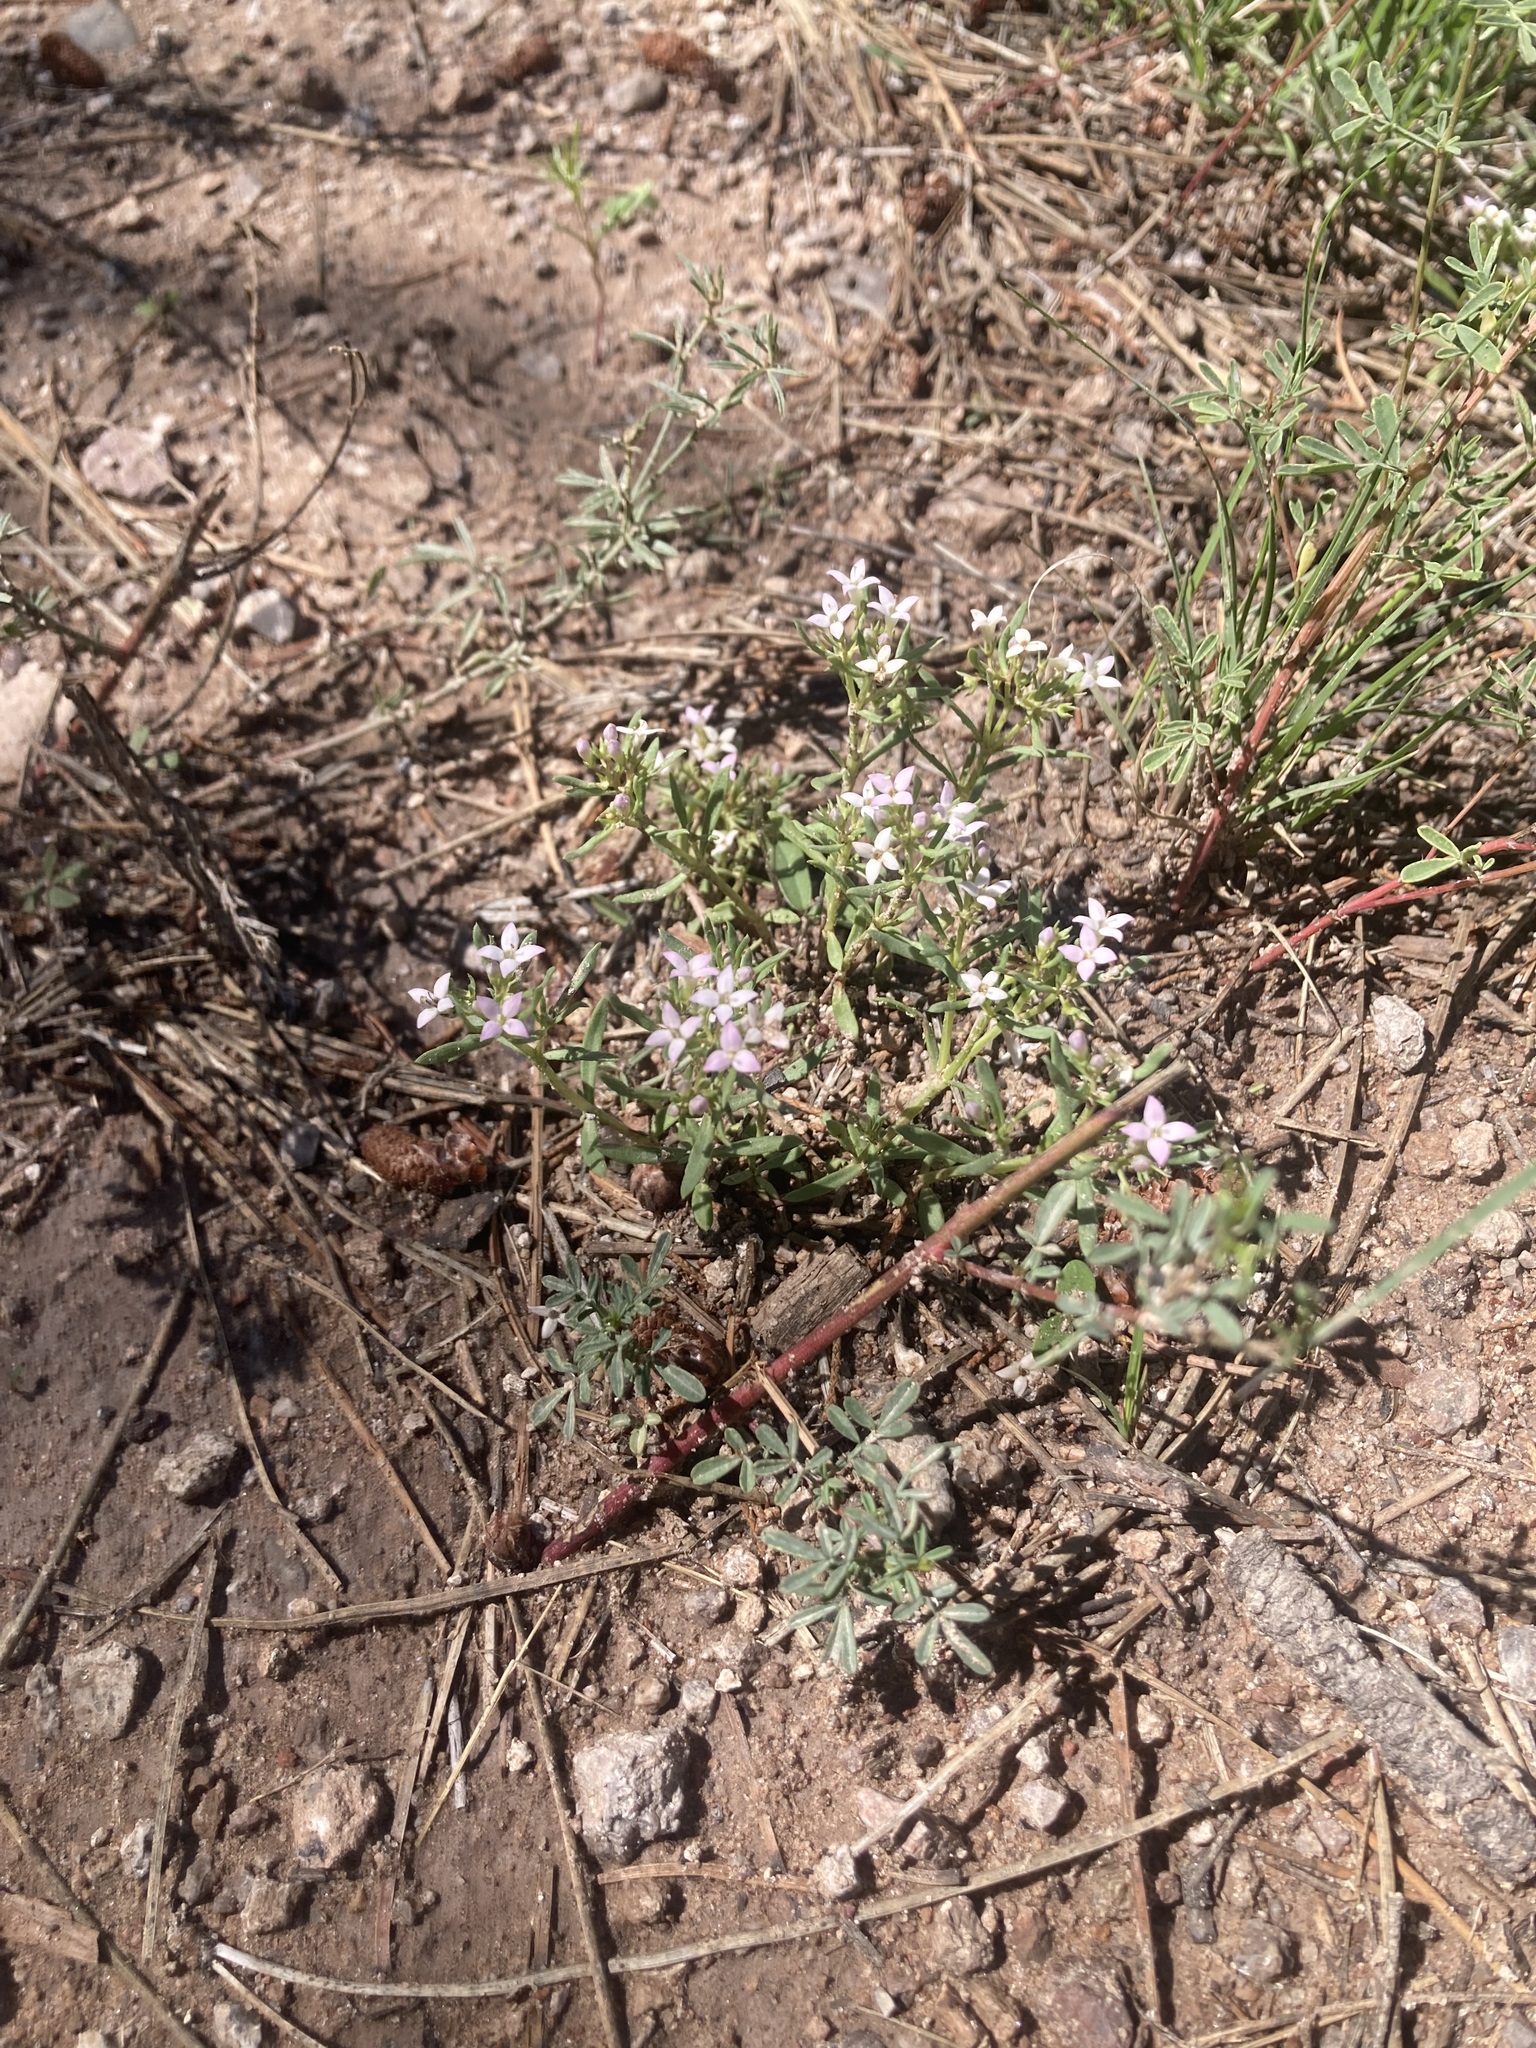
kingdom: Plantae
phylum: Tracheophyta
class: Magnoliopsida
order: Gentianales
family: Rubiaceae
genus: Houstonia
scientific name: Houstonia wrightii
